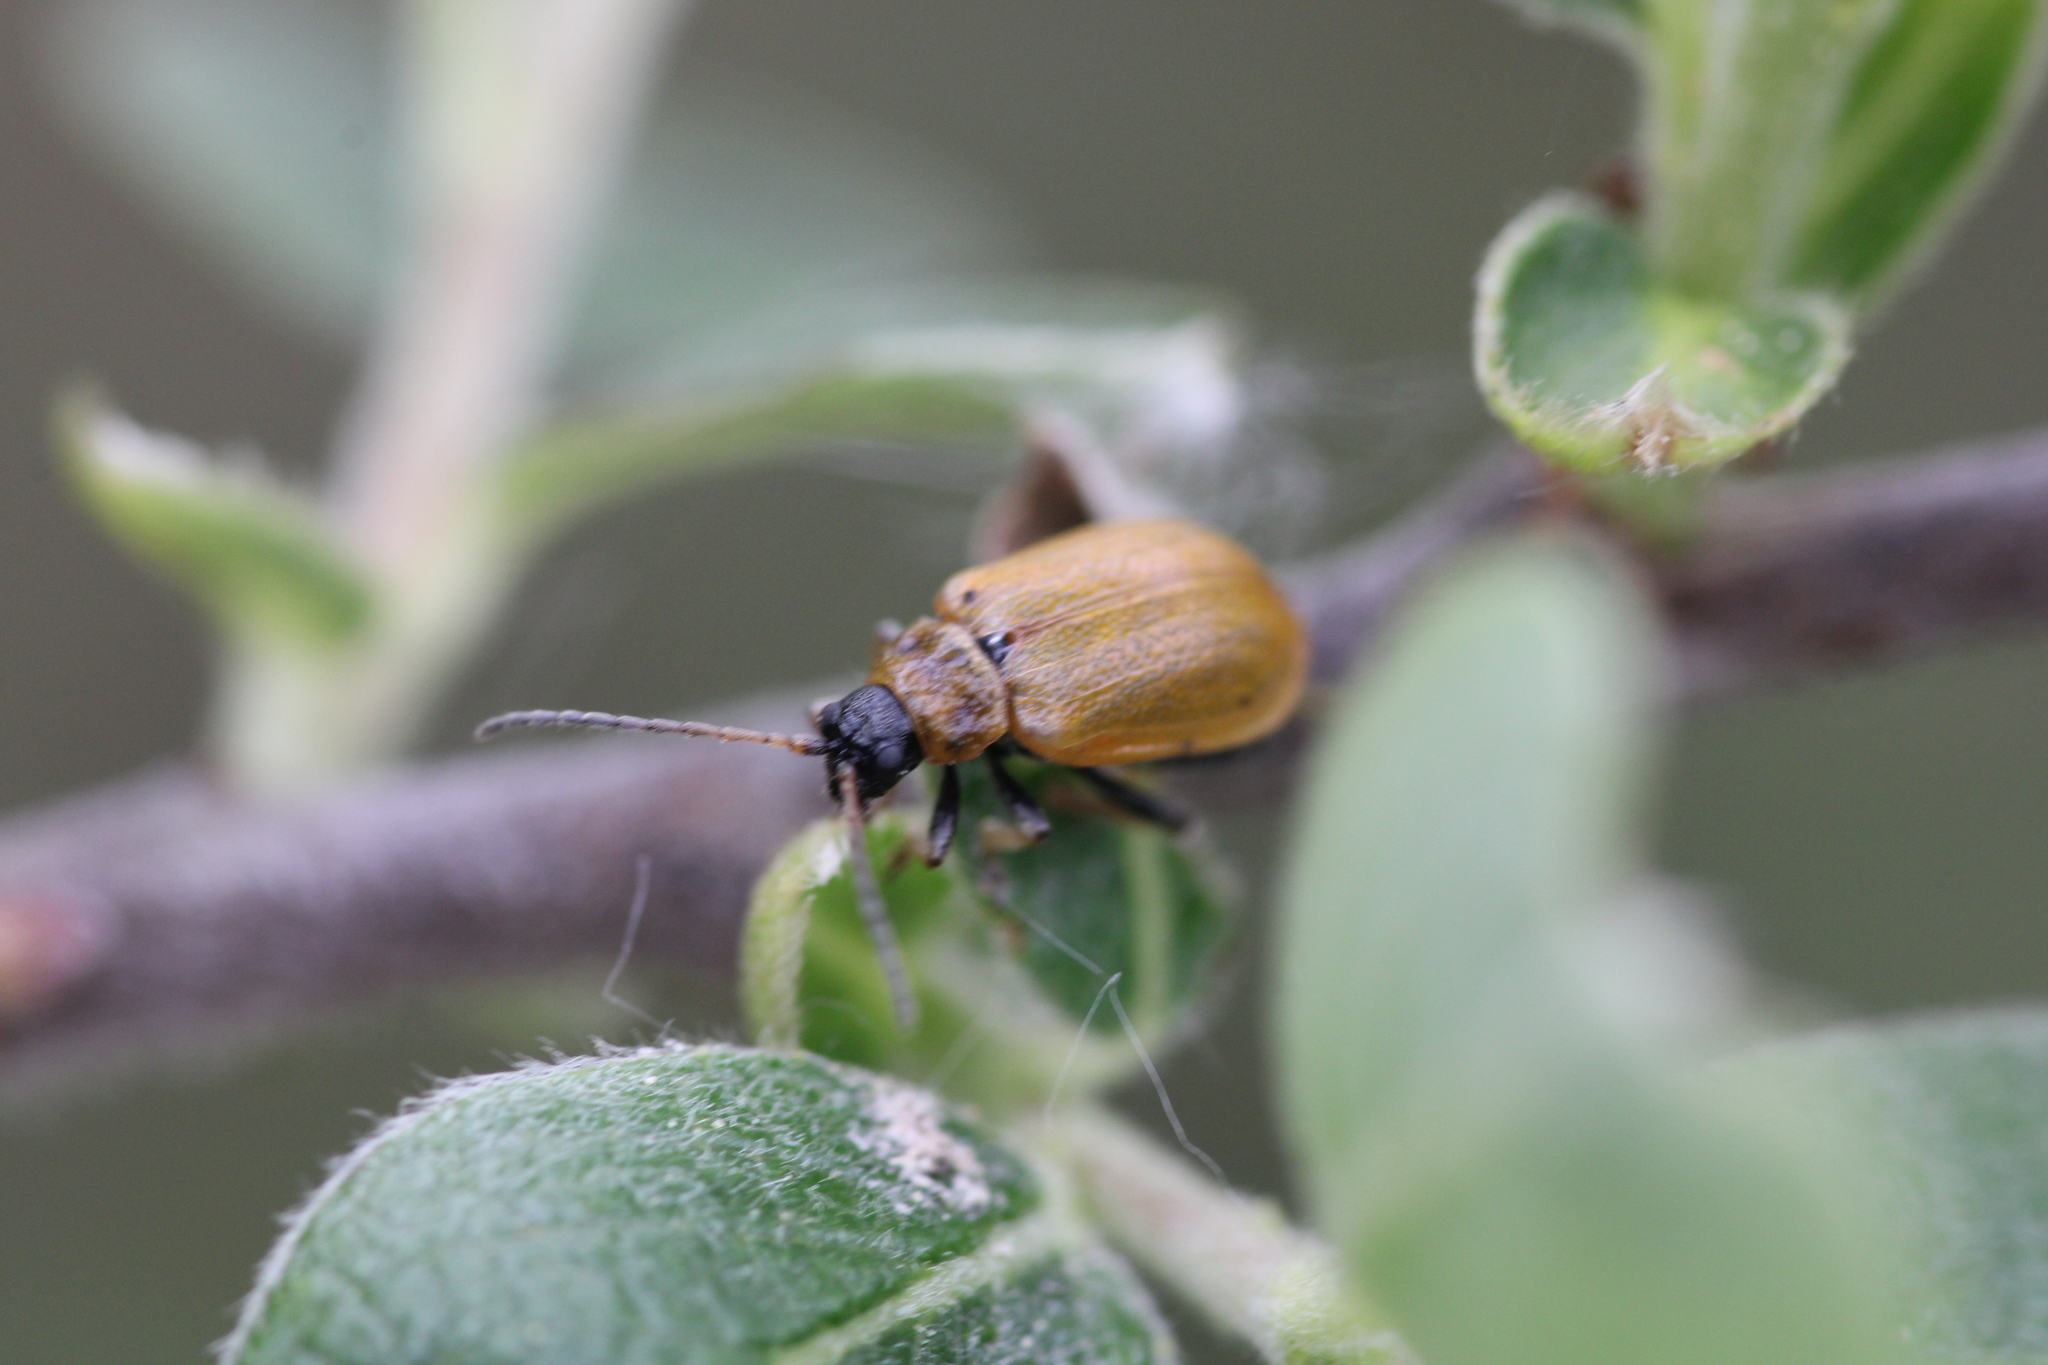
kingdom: Animalia
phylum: Arthropoda
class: Insecta
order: Coleoptera
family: Chrysomelidae
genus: Lochmaea
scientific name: Lochmaea caprea
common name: Willow leaf beetle
